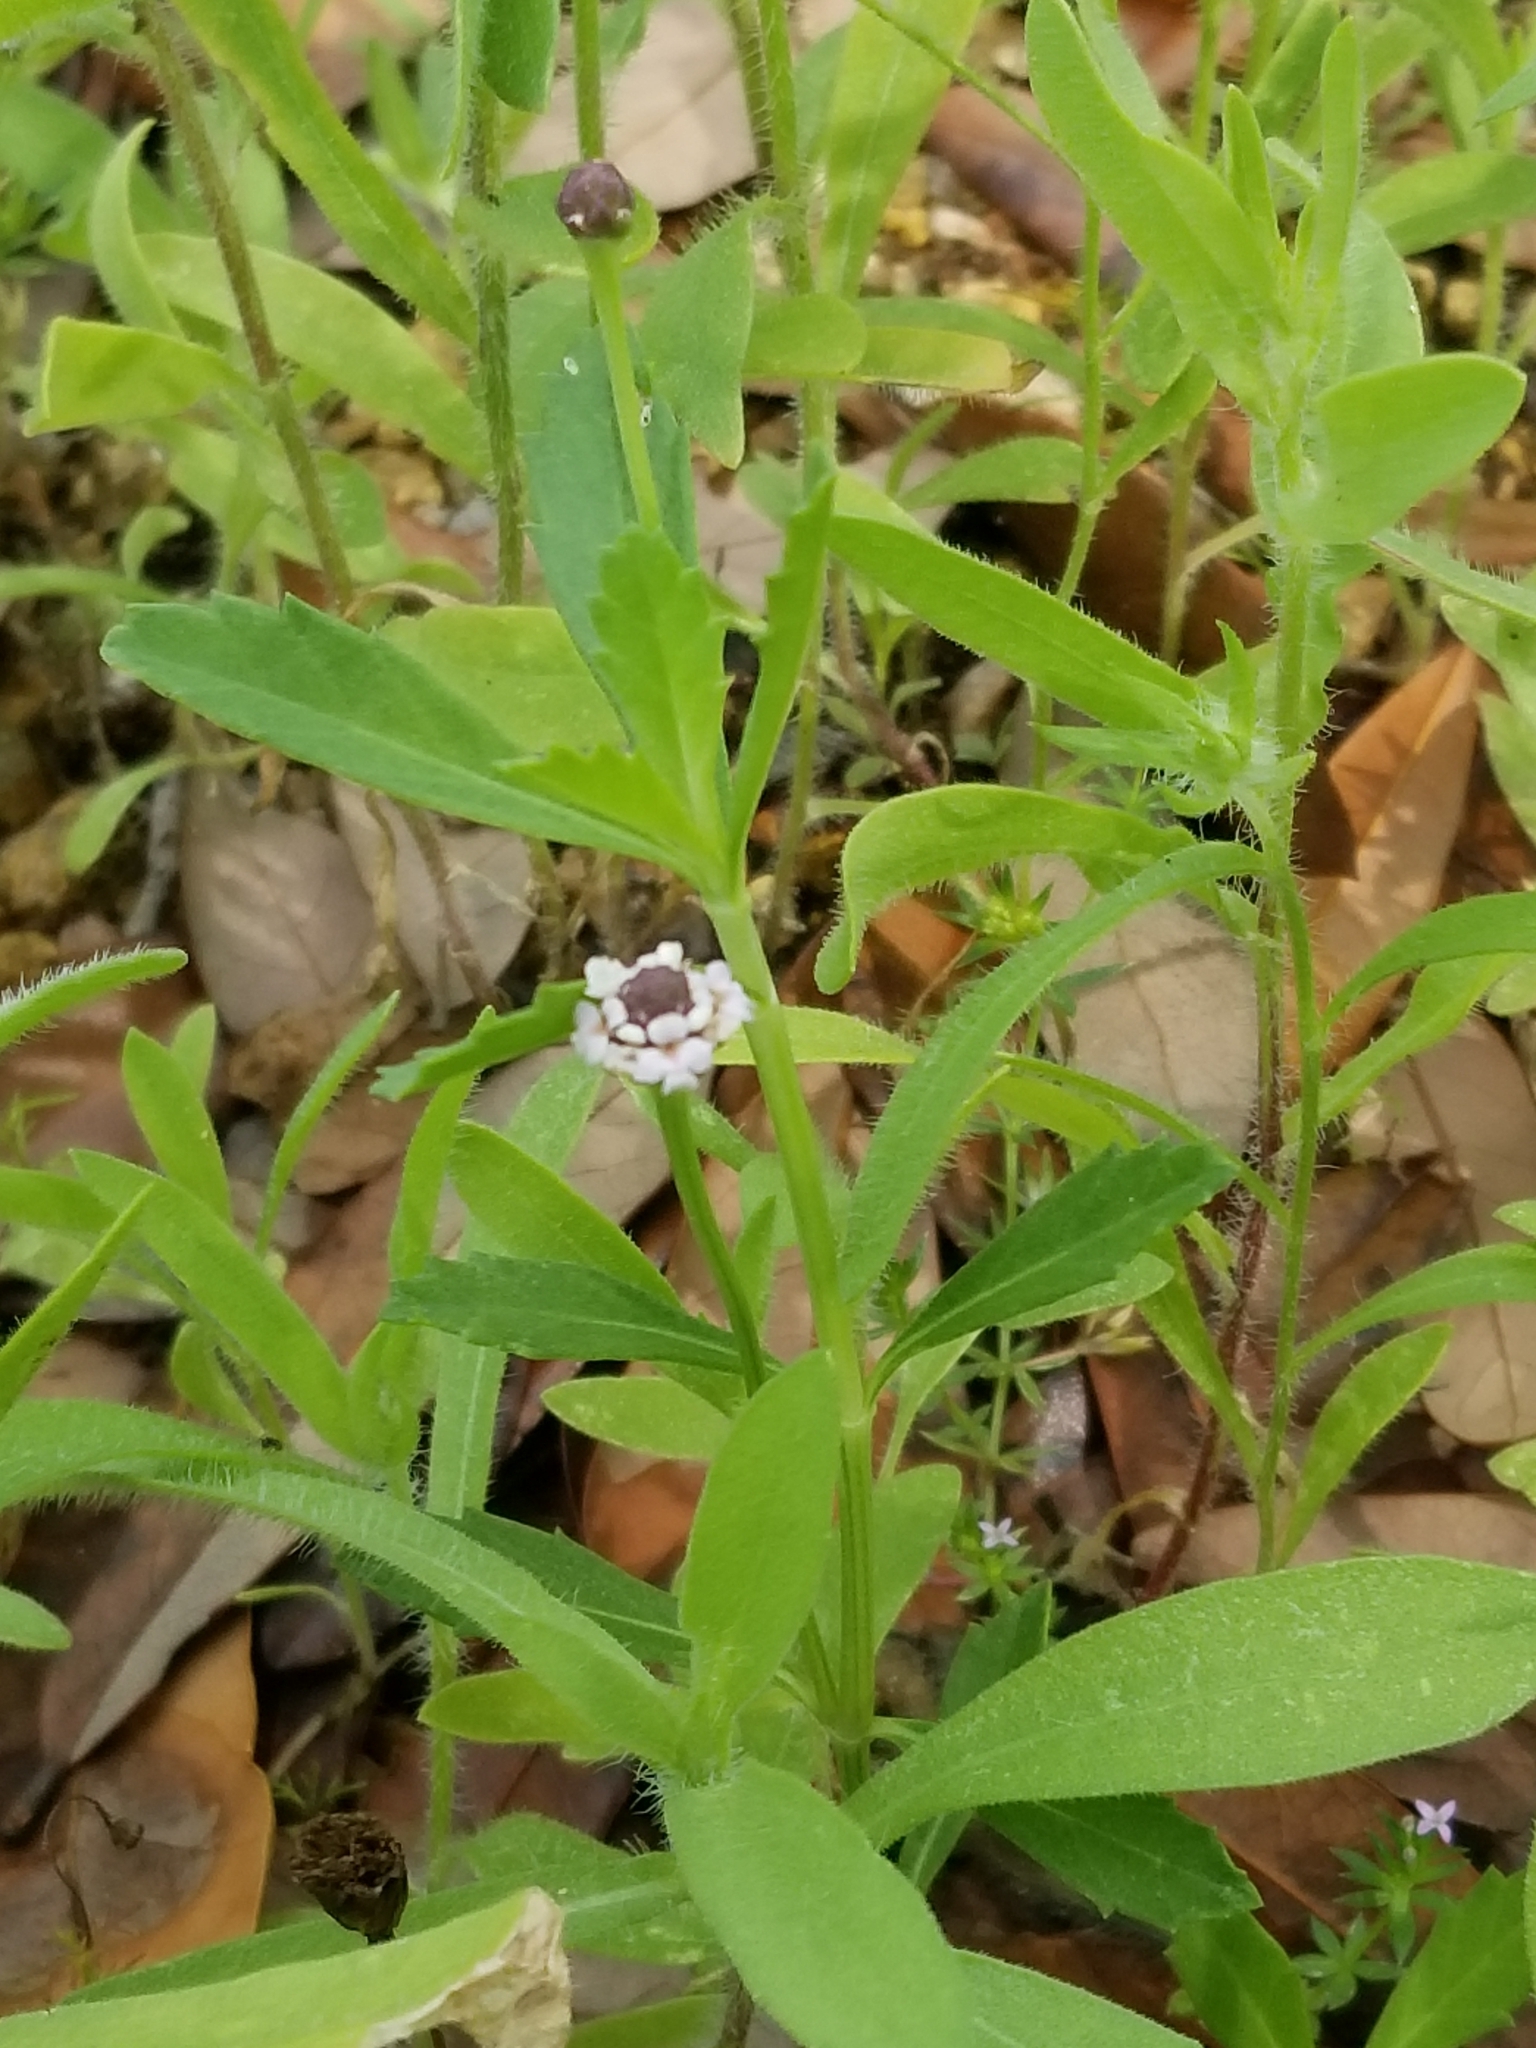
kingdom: Plantae
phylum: Tracheophyta
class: Magnoliopsida
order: Lamiales
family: Verbenaceae
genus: Phyla
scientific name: Phyla nodiflora
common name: Frogfruit
